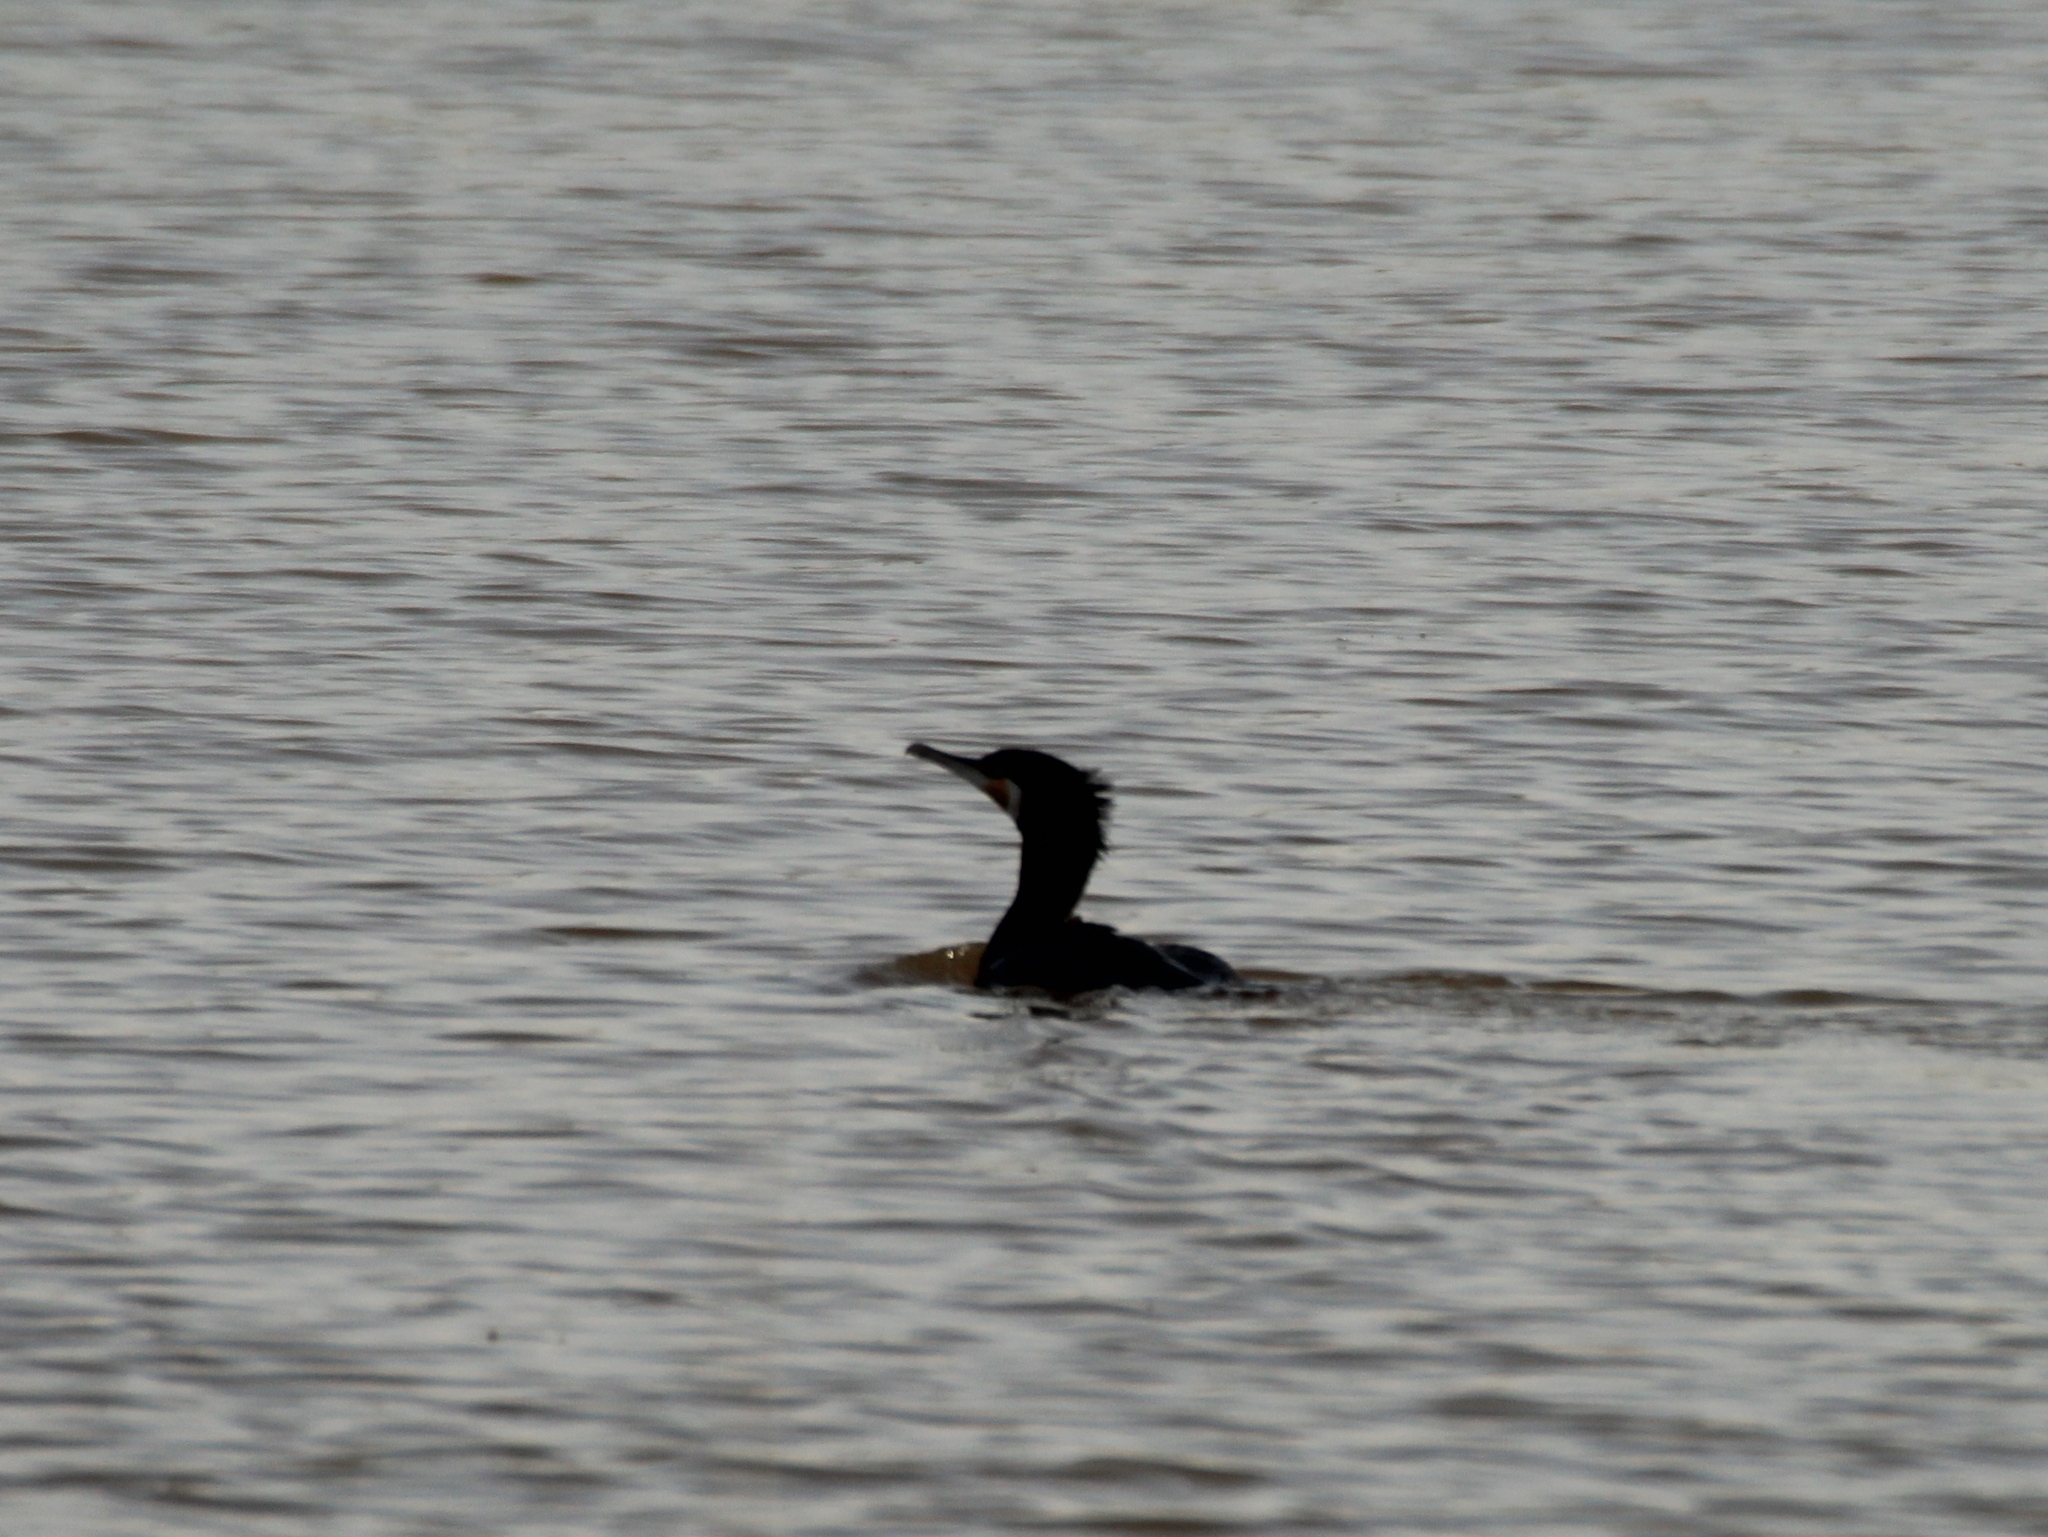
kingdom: Animalia
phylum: Chordata
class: Aves
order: Suliformes
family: Phalacrocoracidae
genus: Phalacrocorax
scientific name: Phalacrocorax carbo
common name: Great cormorant
